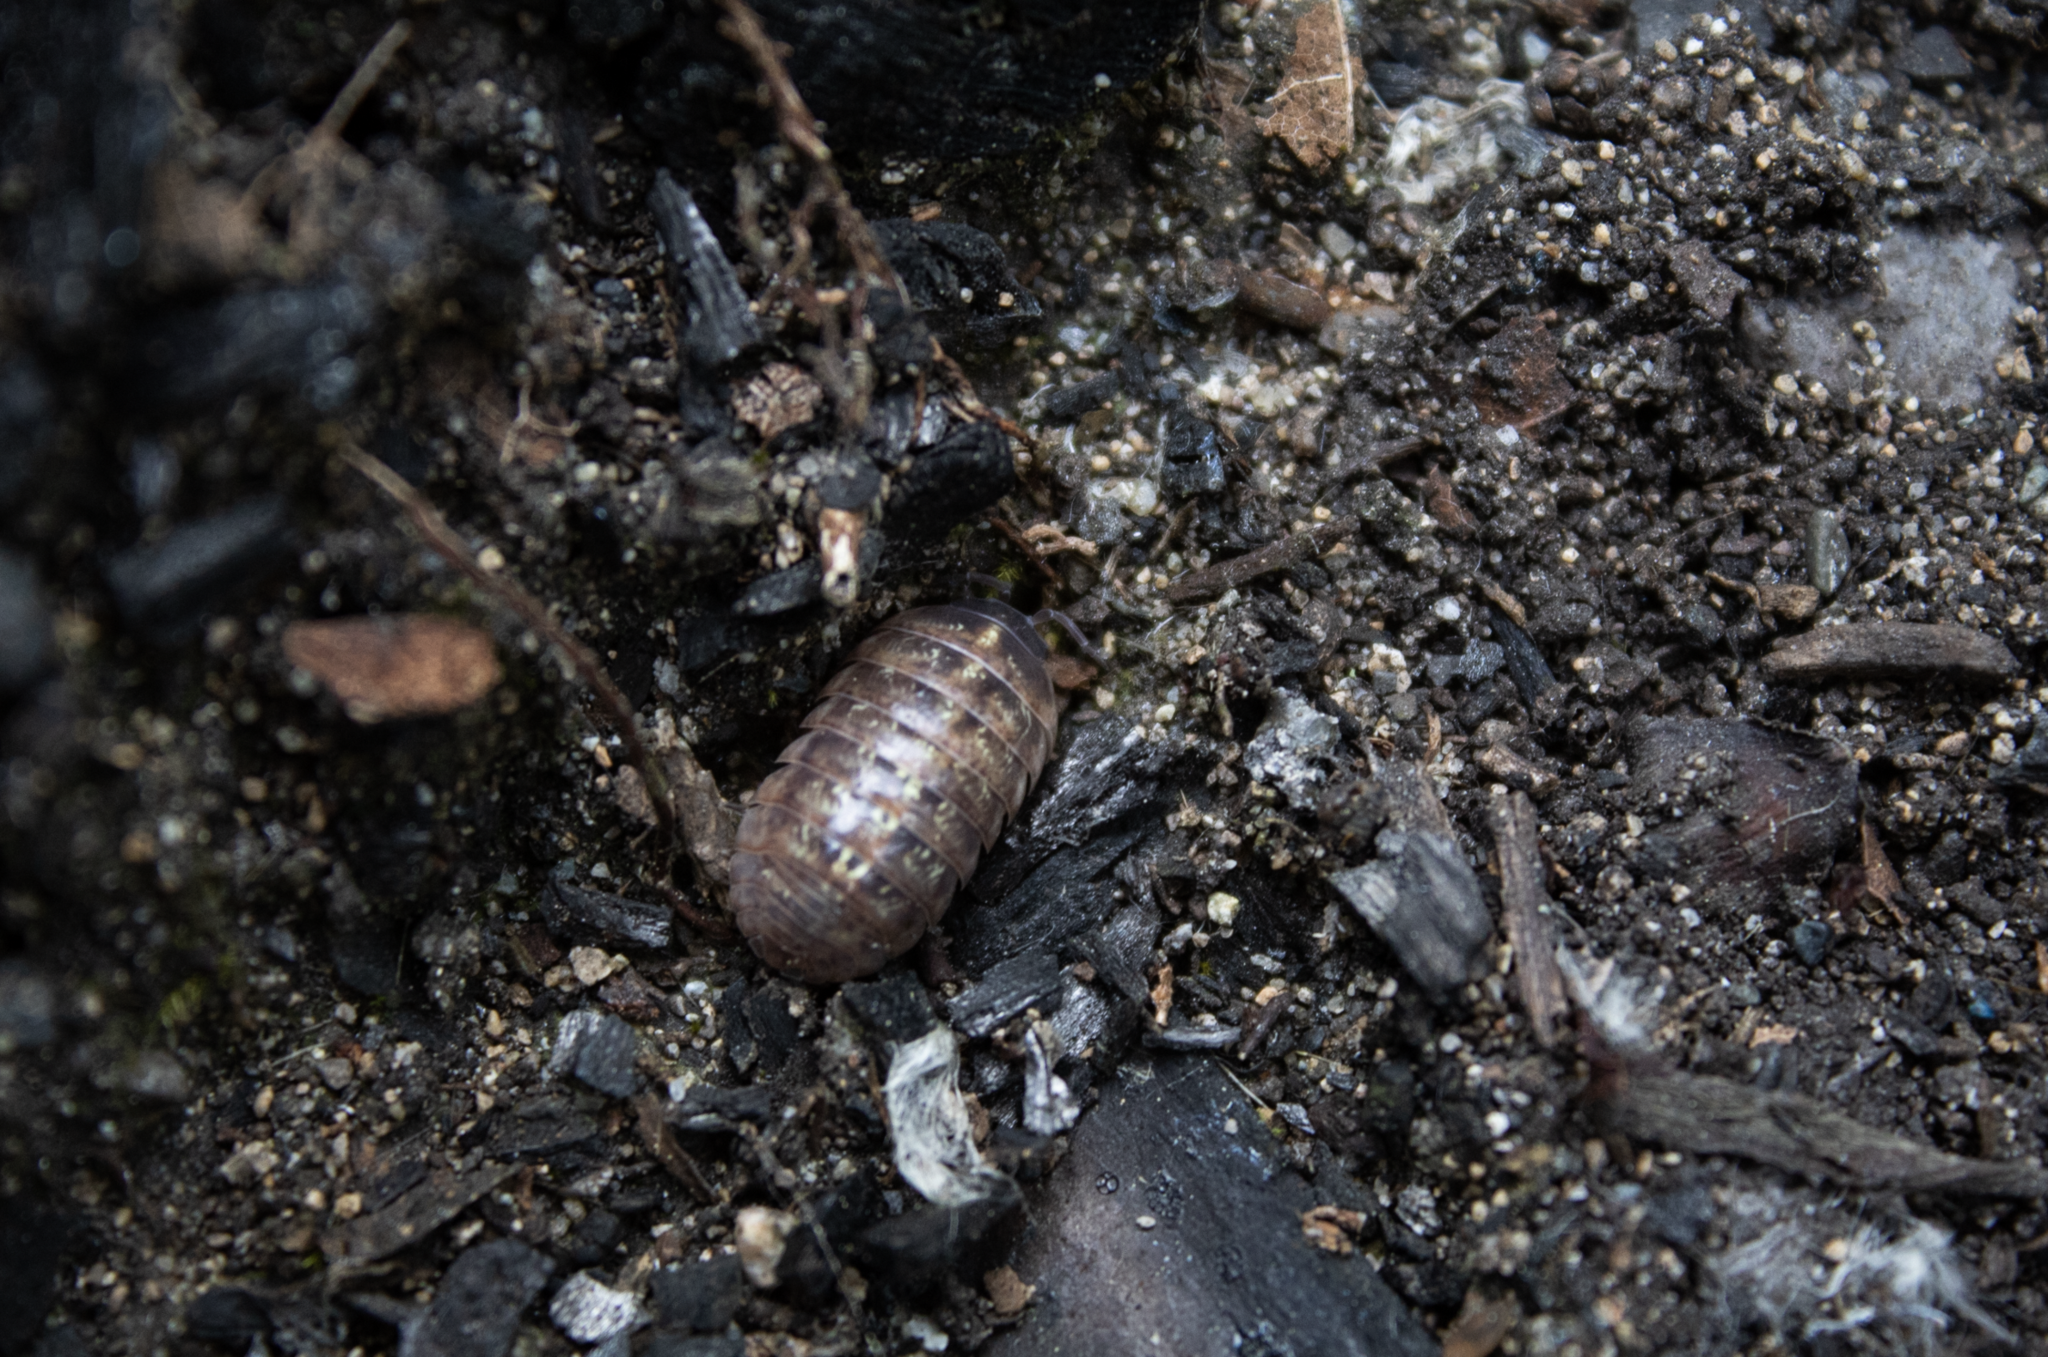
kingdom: Animalia
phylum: Arthropoda
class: Malacostraca
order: Isopoda
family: Armadillidiidae
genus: Armadillidium
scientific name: Armadillidium vulgare
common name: Common pill woodlouse
